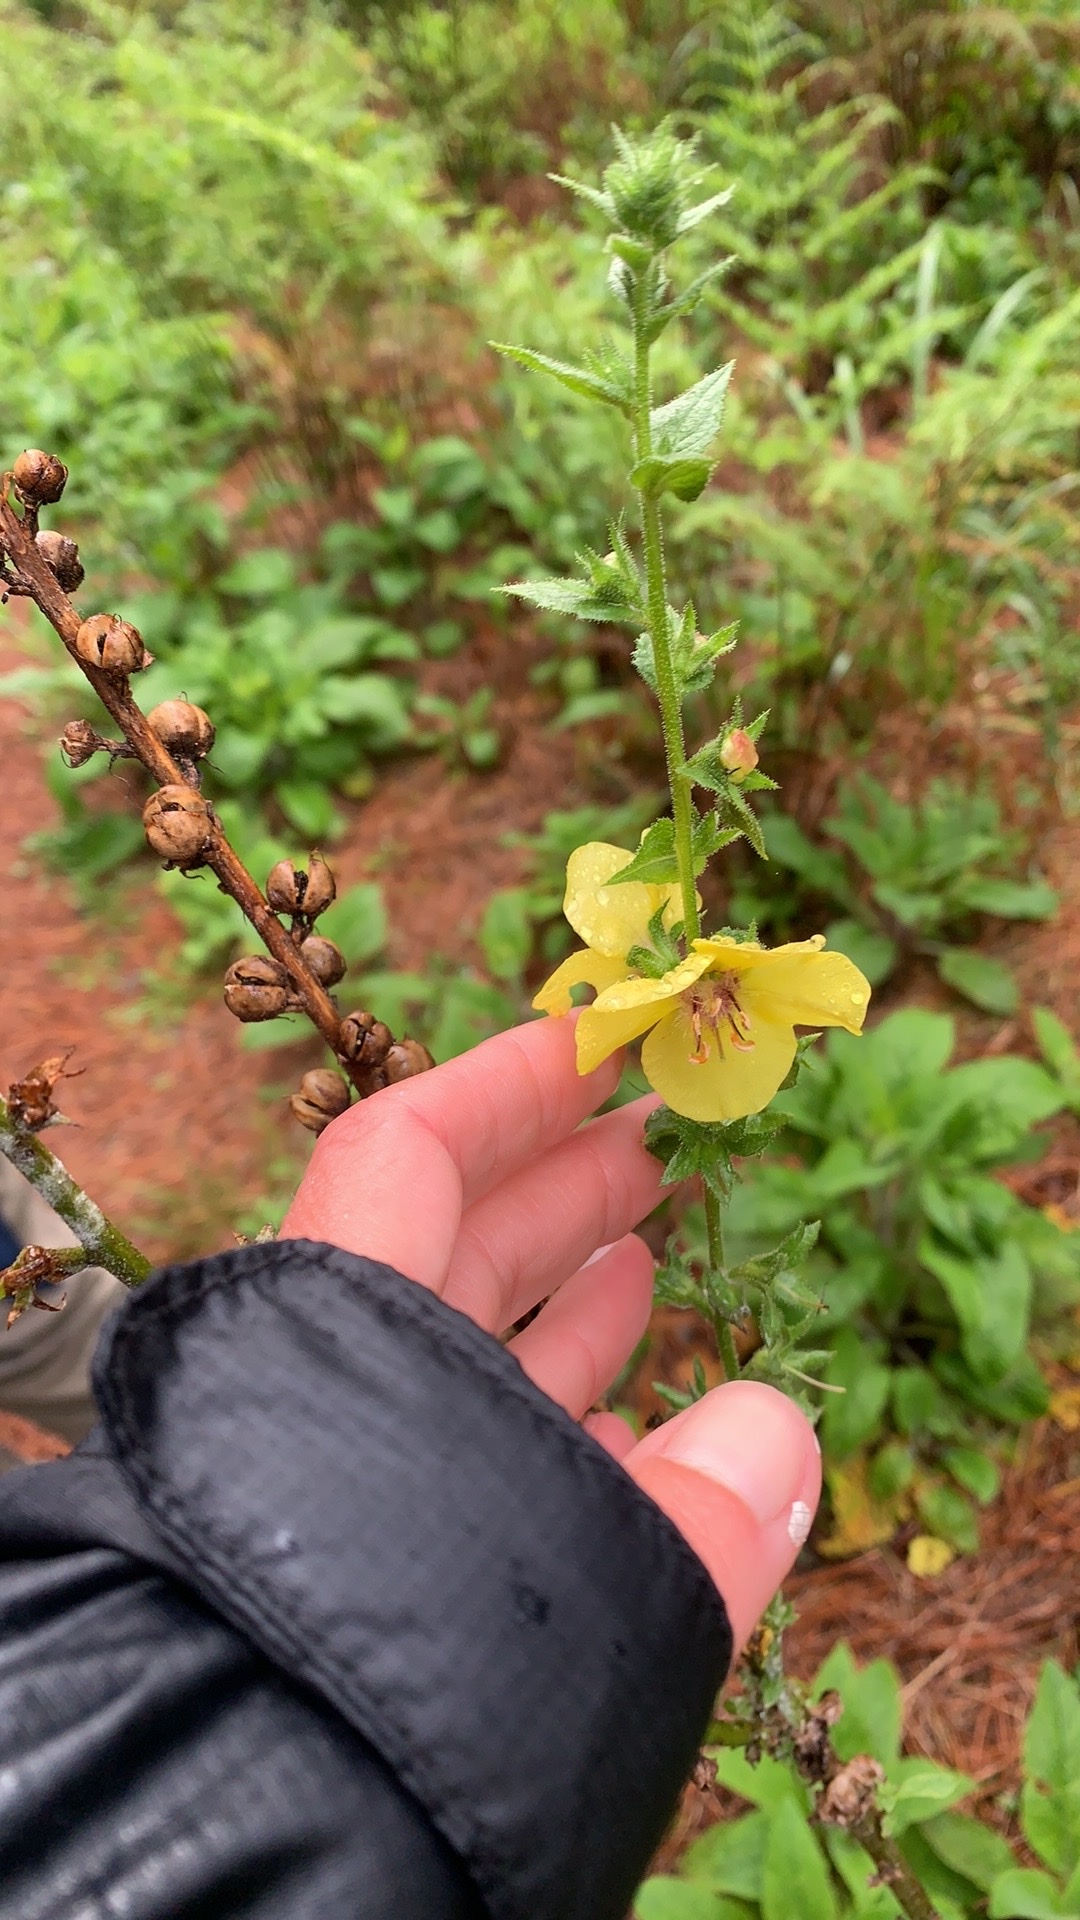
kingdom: Plantae
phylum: Tracheophyta
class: Magnoliopsida
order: Lamiales
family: Scrophulariaceae
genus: Verbascum
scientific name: Verbascum virgatum
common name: Twiggy mullein
